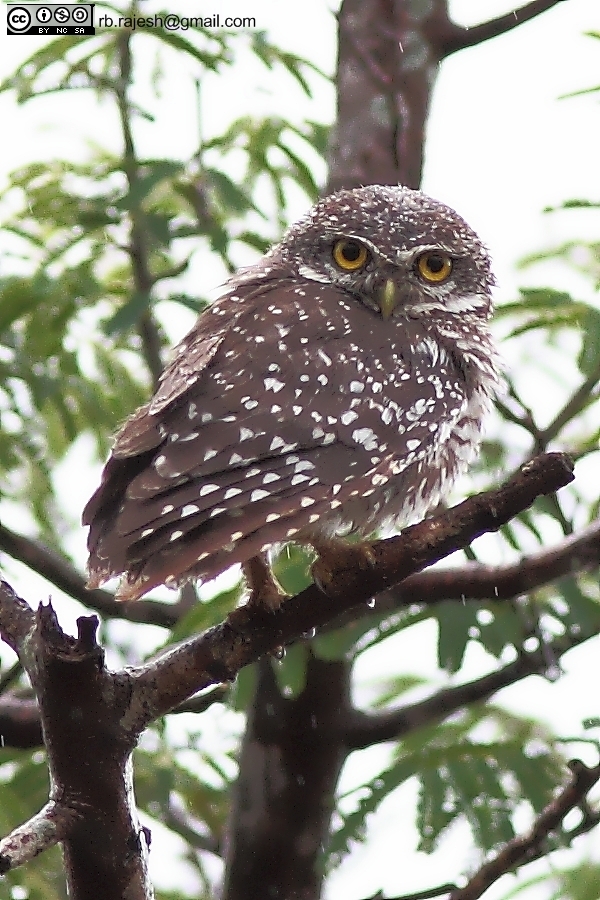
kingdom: Animalia
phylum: Chordata
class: Aves
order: Strigiformes
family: Strigidae
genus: Athene
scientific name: Athene brama
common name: Spotted owlet
